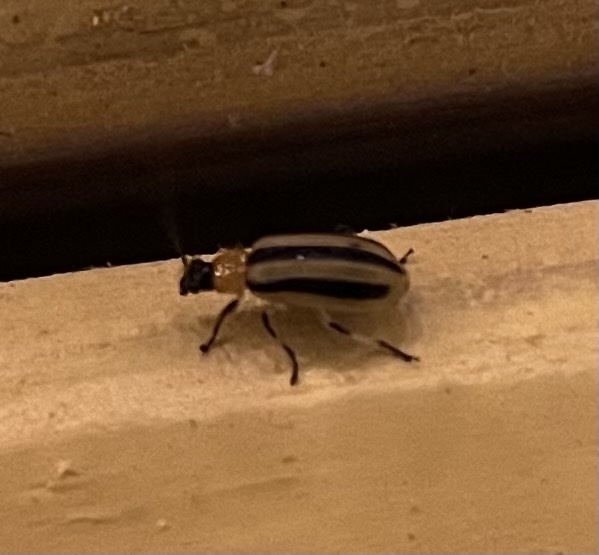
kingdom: Animalia
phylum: Arthropoda
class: Insecta
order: Coleoptera
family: Chrysomelidae
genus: Acalymma
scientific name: Acalymma vittatum
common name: Striped cucumber beetle
